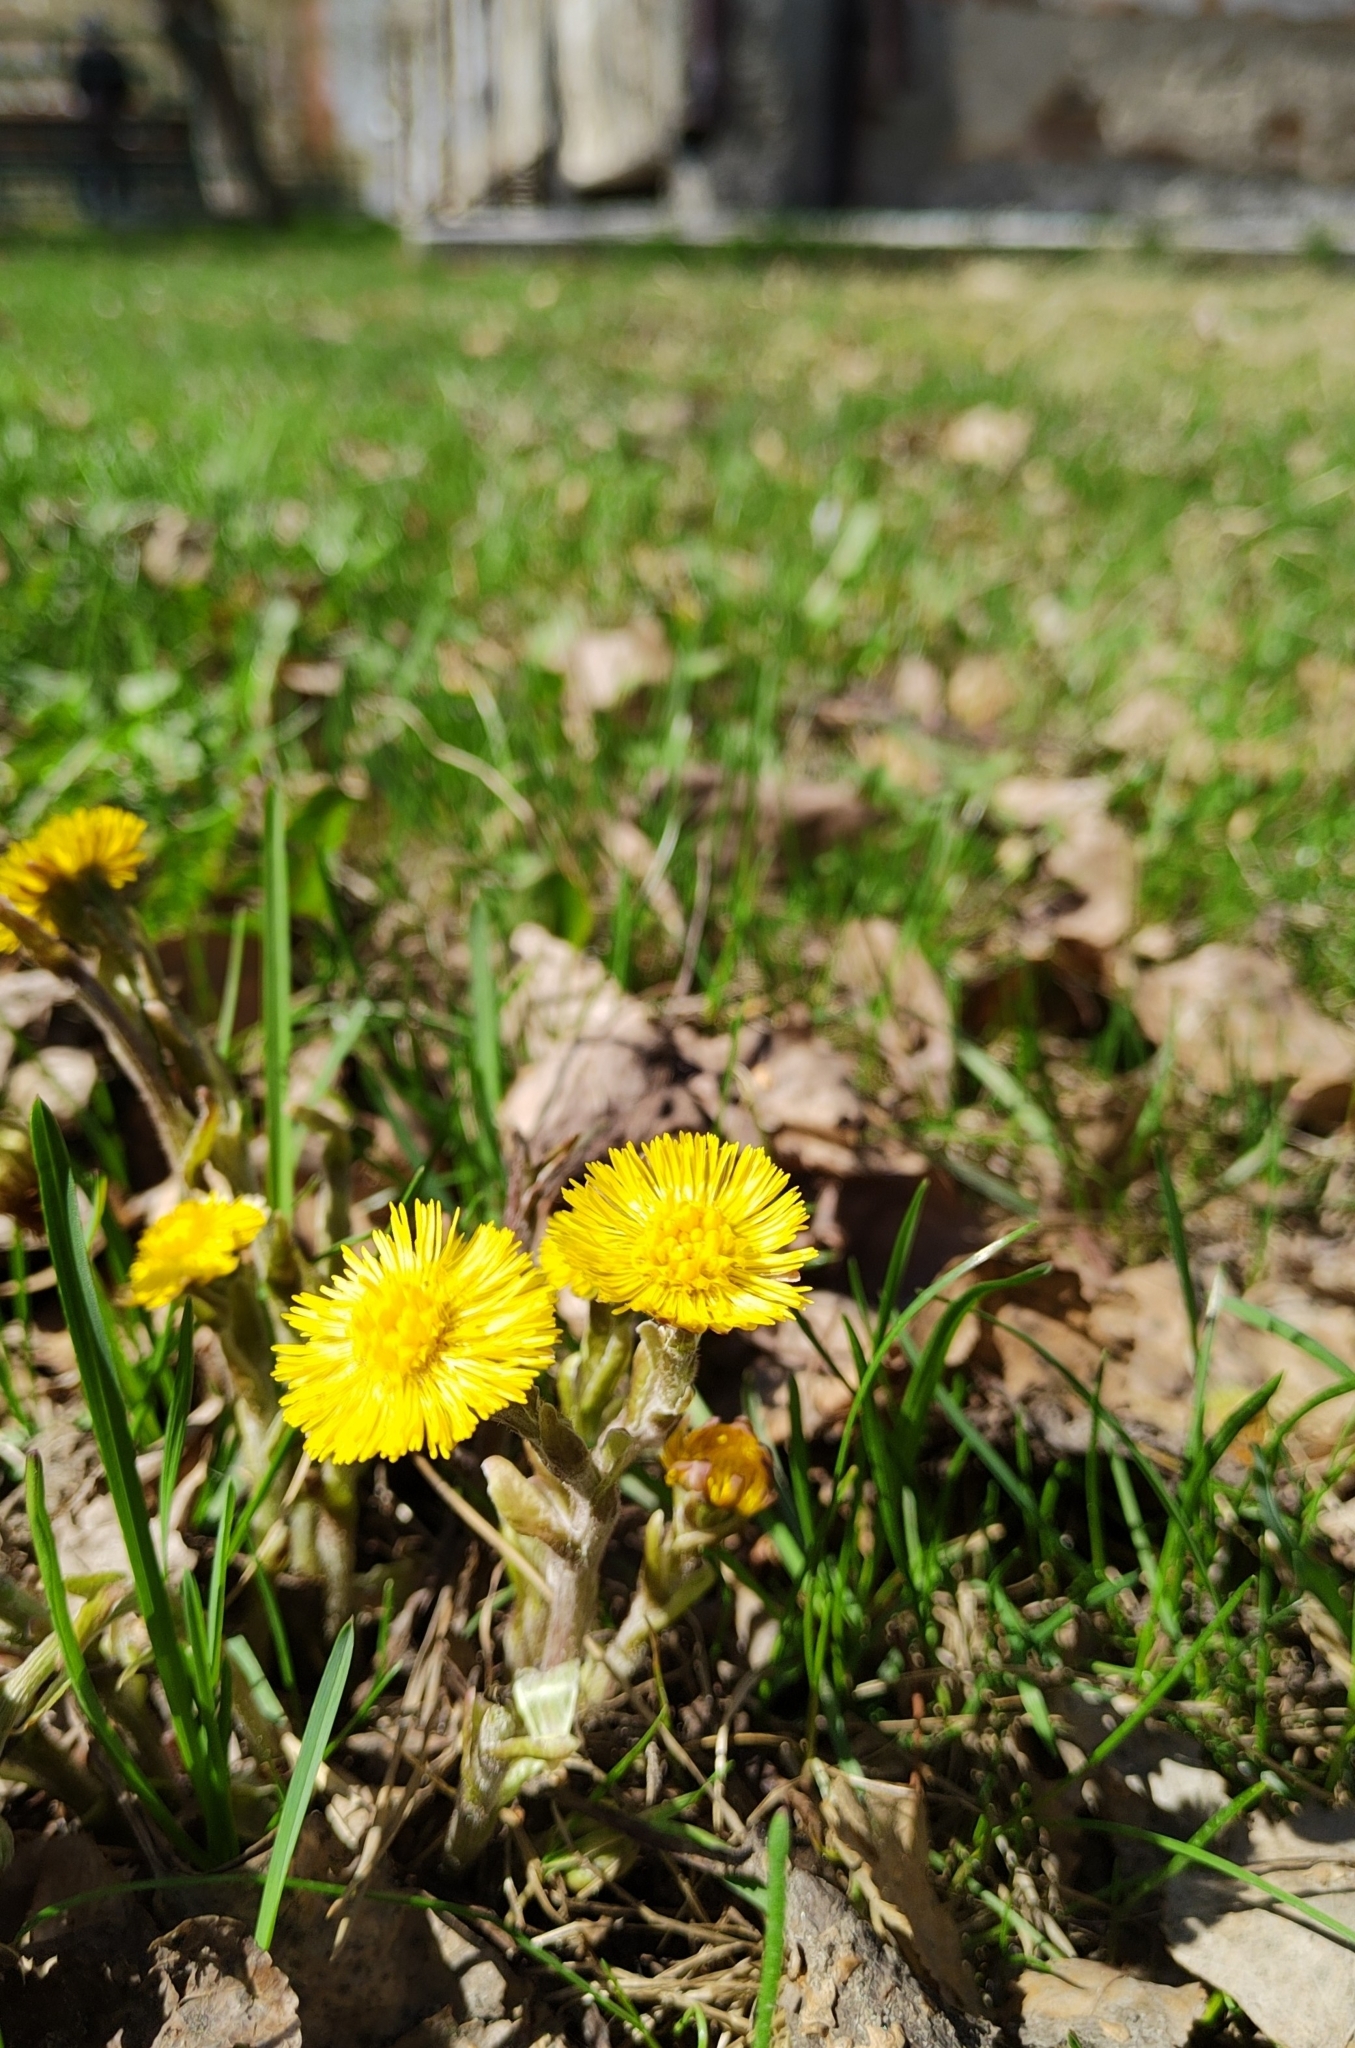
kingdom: Plantae
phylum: Tracheophyta
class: Magnoliopsida
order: Asterales
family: Asteraceae
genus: Tussilago
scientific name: Tussilago farfara
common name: Coltsfoot
